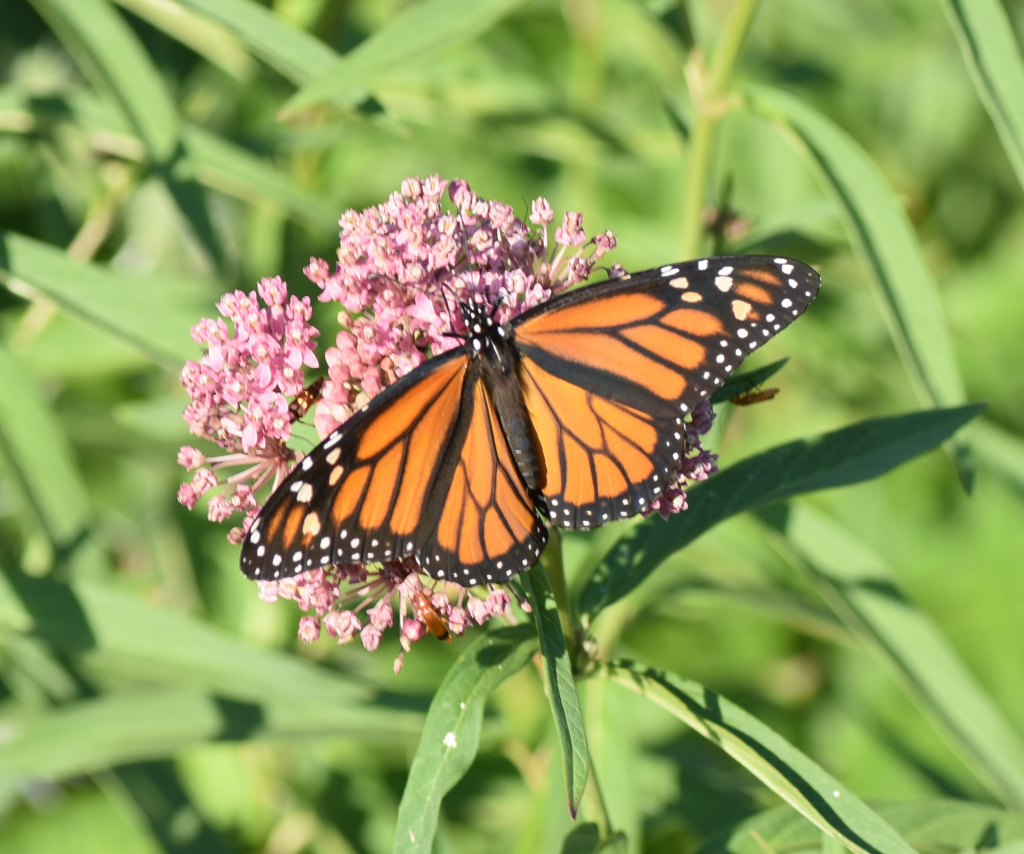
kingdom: Animalia
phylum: Arthropoda
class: Insecta
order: Lepidoptera
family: Nymphalidae
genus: Danaus
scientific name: Danaus plexippus
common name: Monarch
